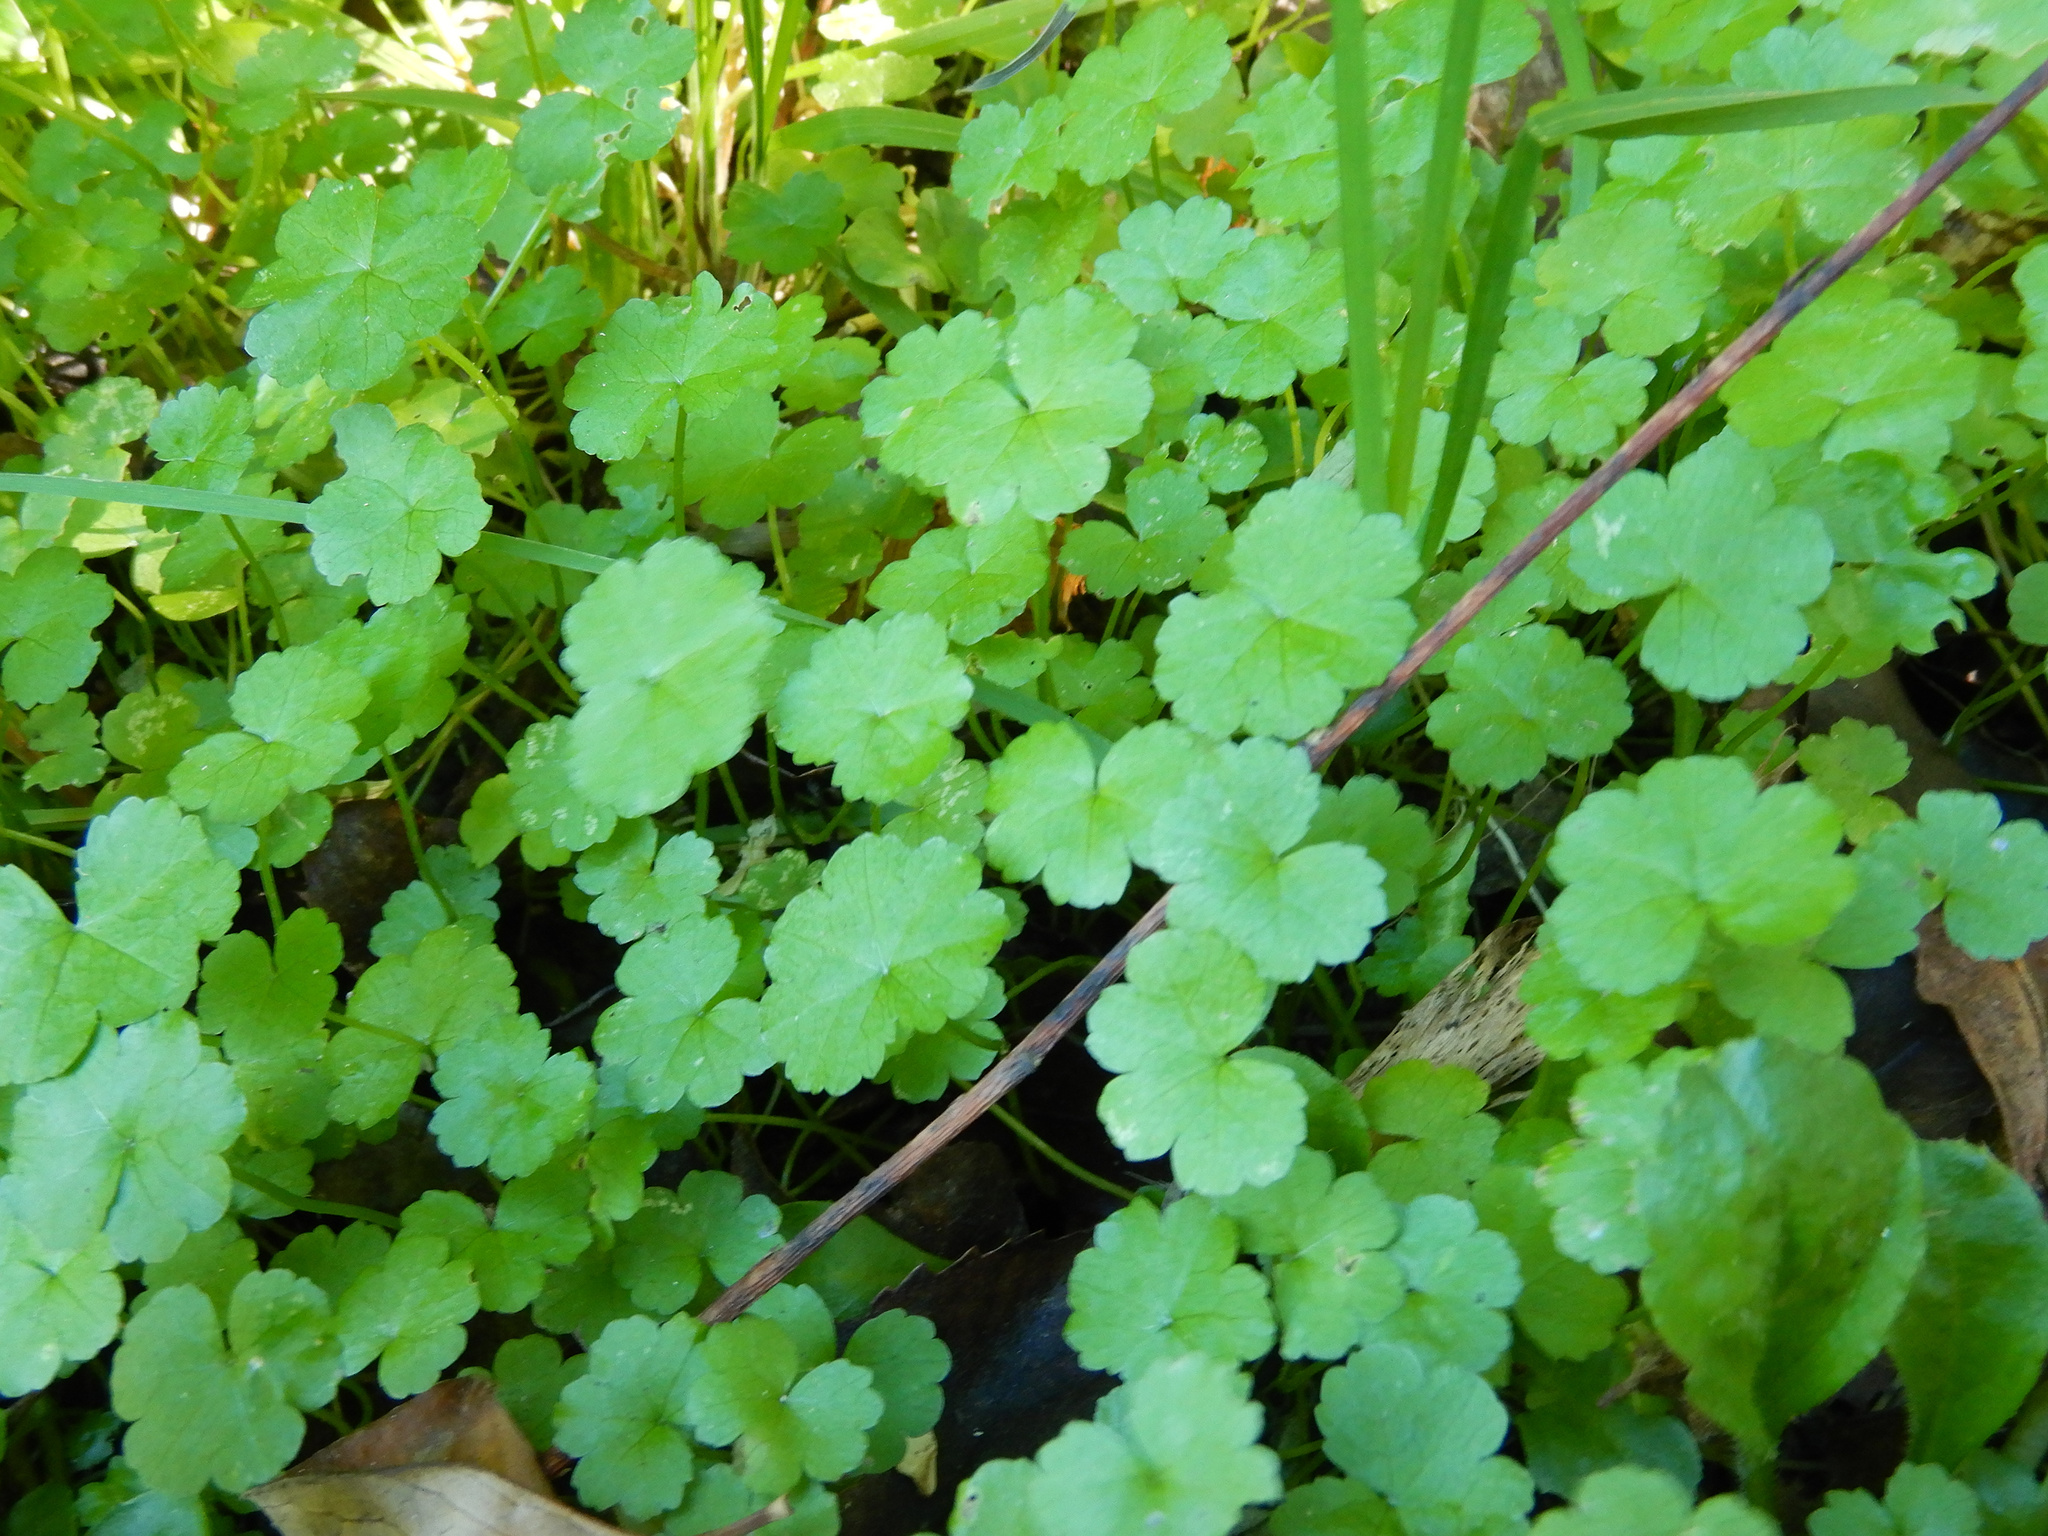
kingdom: Plantae
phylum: Tracheophyta
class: Magnoliopsida
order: Apiales
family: Araliaceae
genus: Hydrocotyle
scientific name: Hydrocotyle heteromeria
